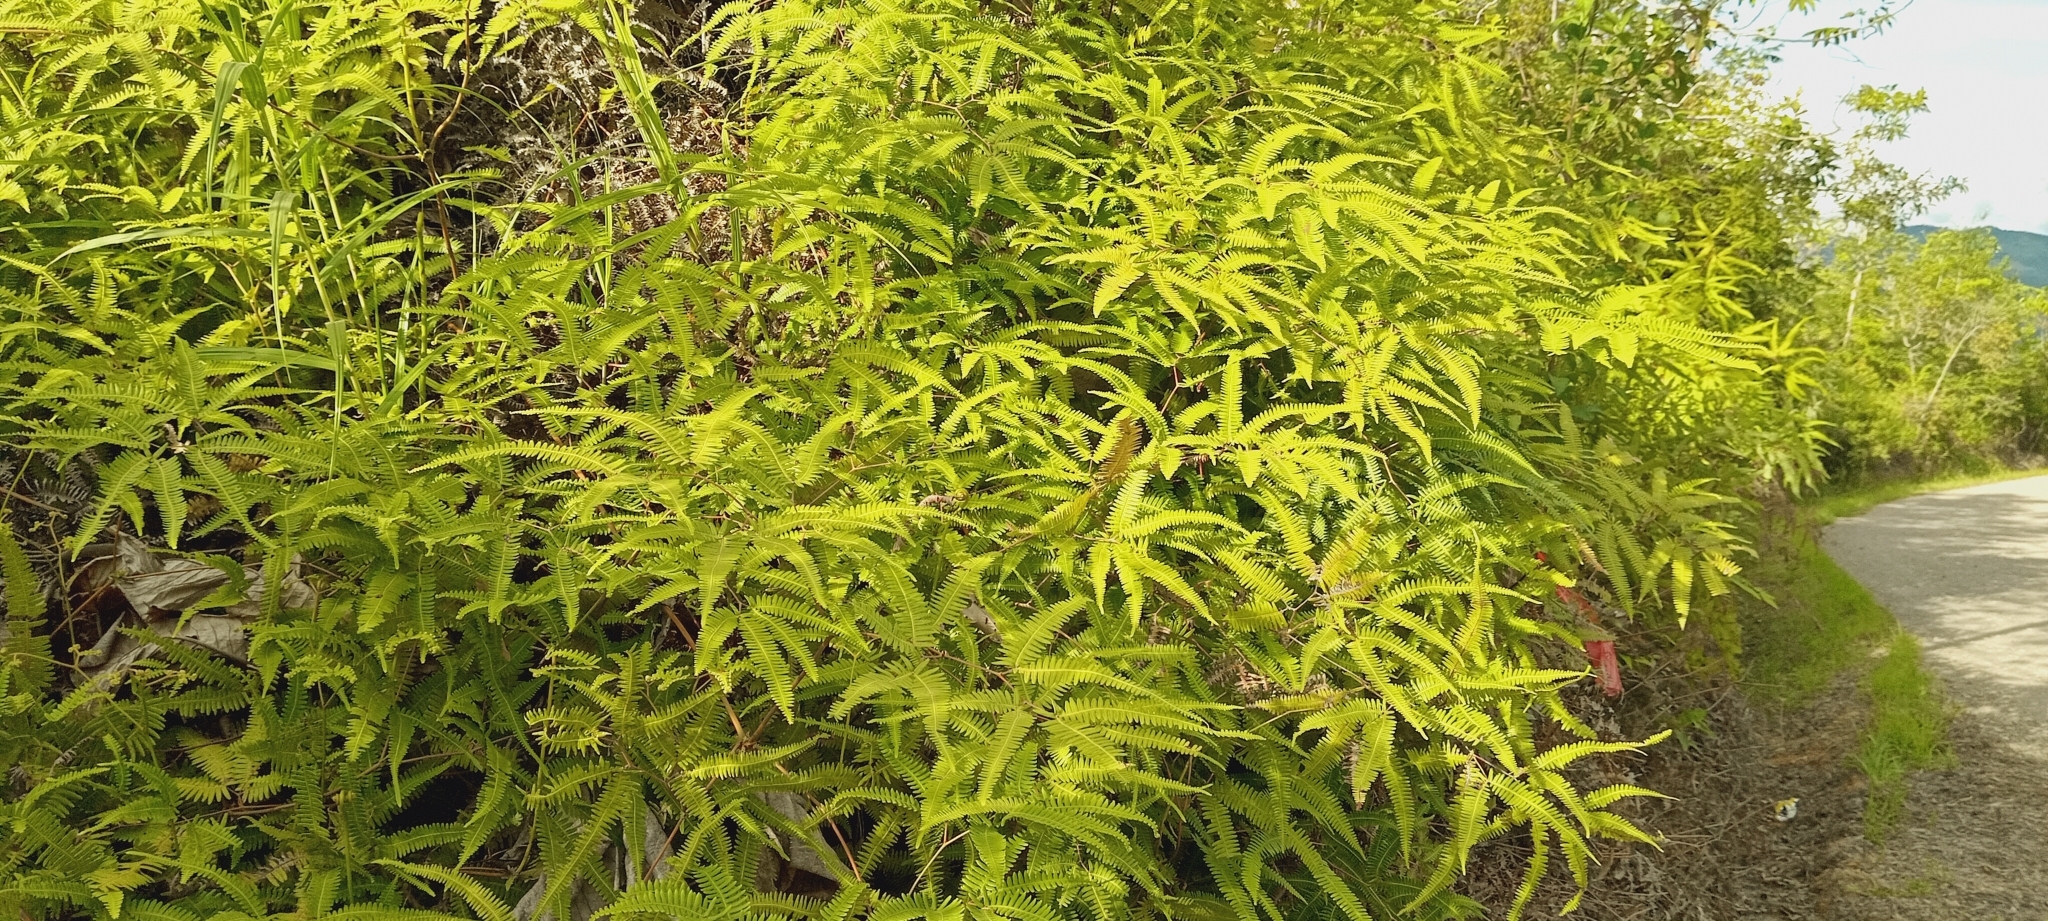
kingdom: Plantae
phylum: Tracheophyta
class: Polypodiopsida
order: Gleicheniales
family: Gleicheniaceae
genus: Gleichenella
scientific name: Gleichenella pectinata
